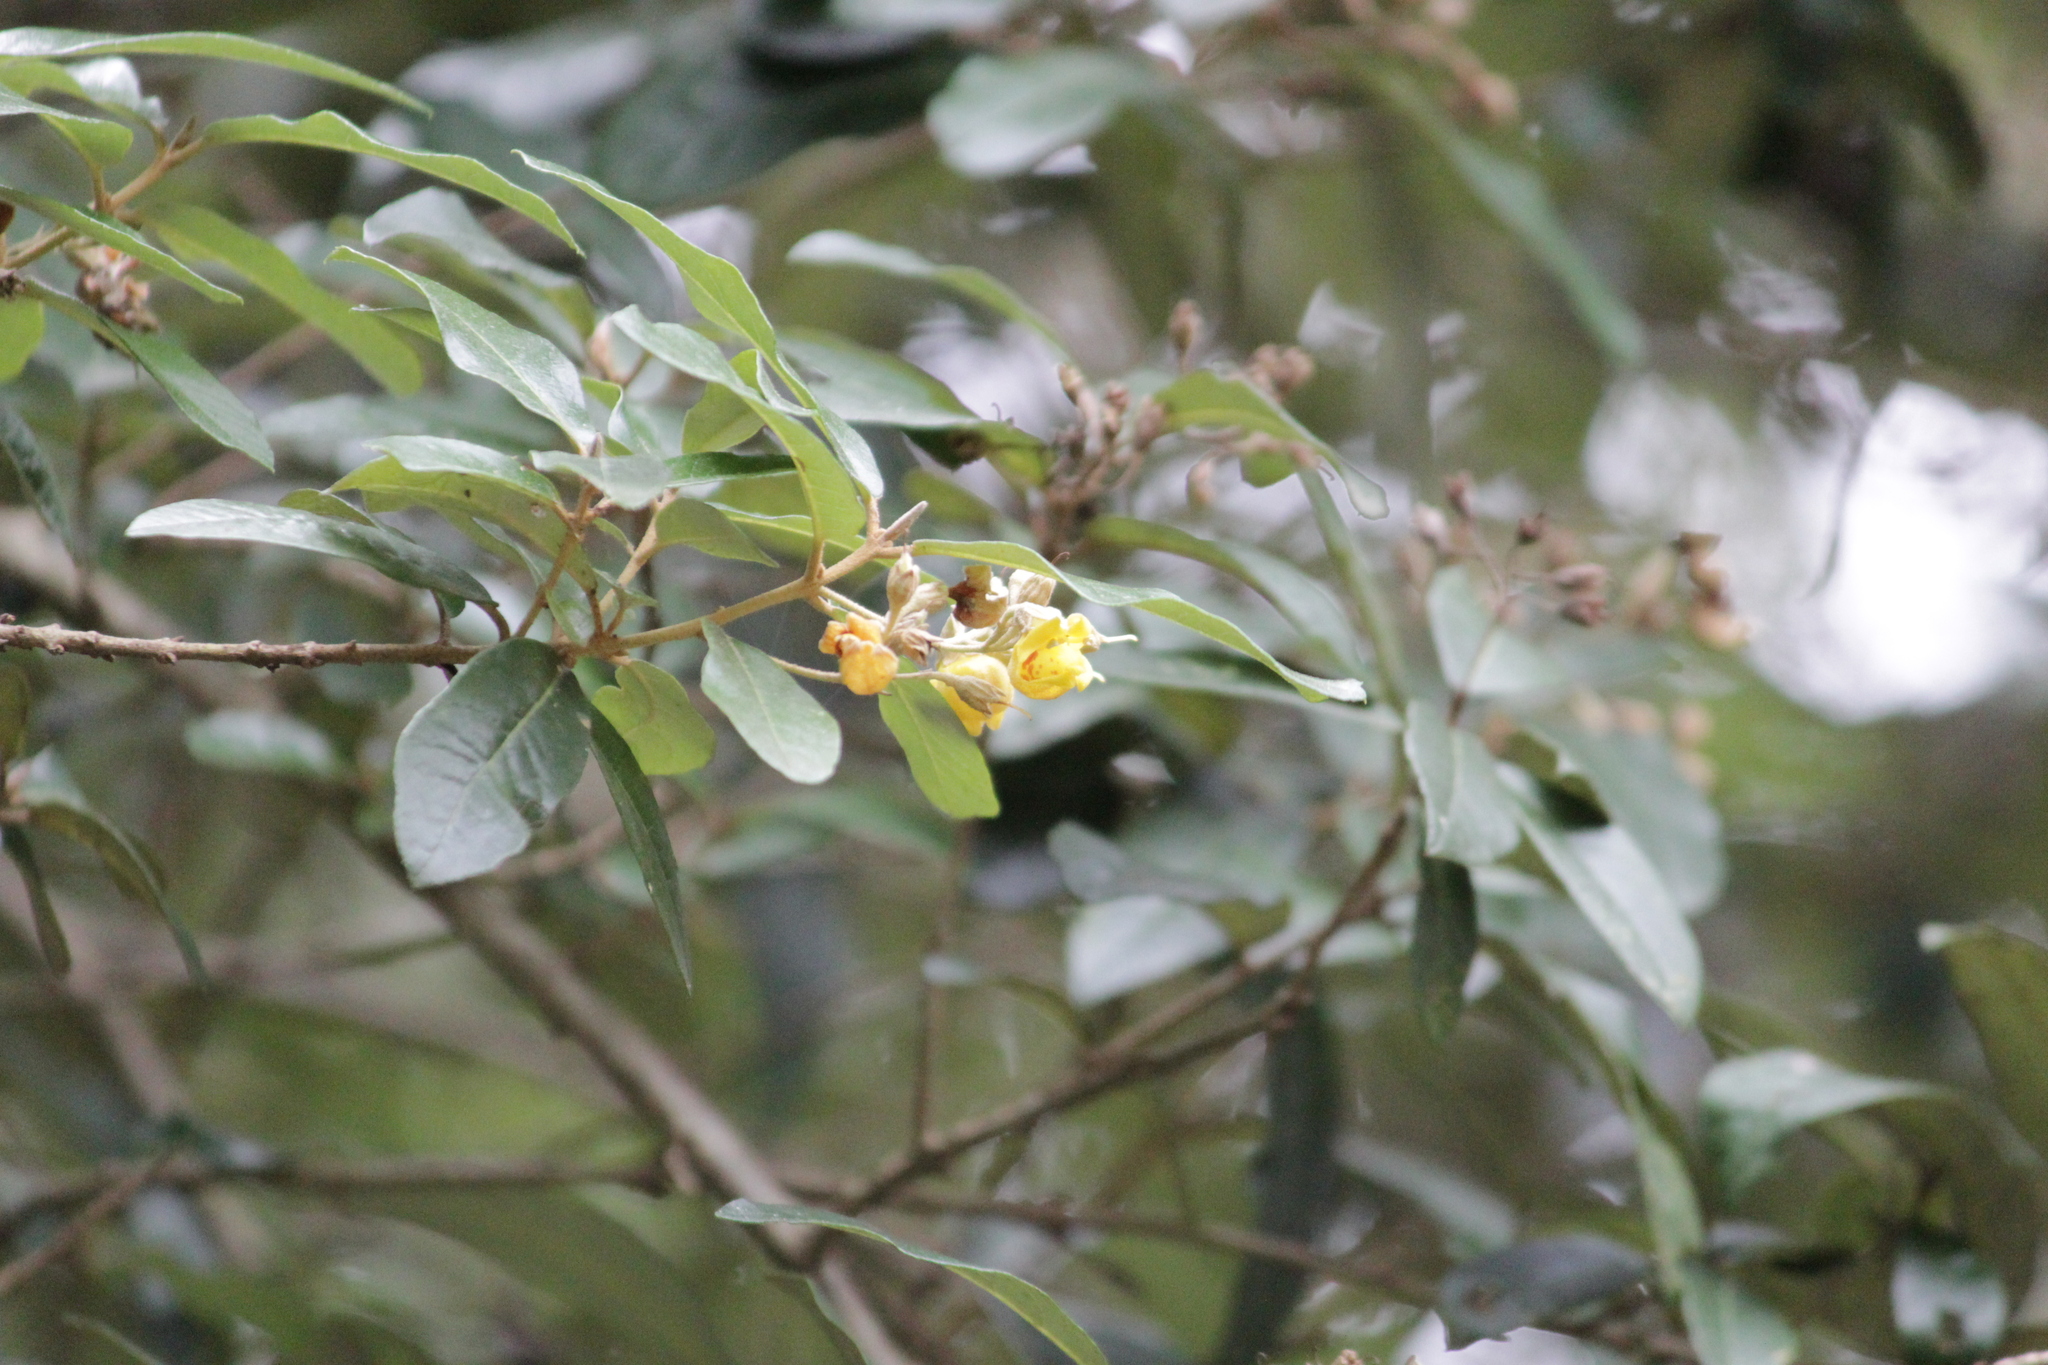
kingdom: Plantae
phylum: Tracheophyta
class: Magnoliopsida
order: Lamiales
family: Stilbaceae
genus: Anastrabe
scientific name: Anastrabe integerrima
